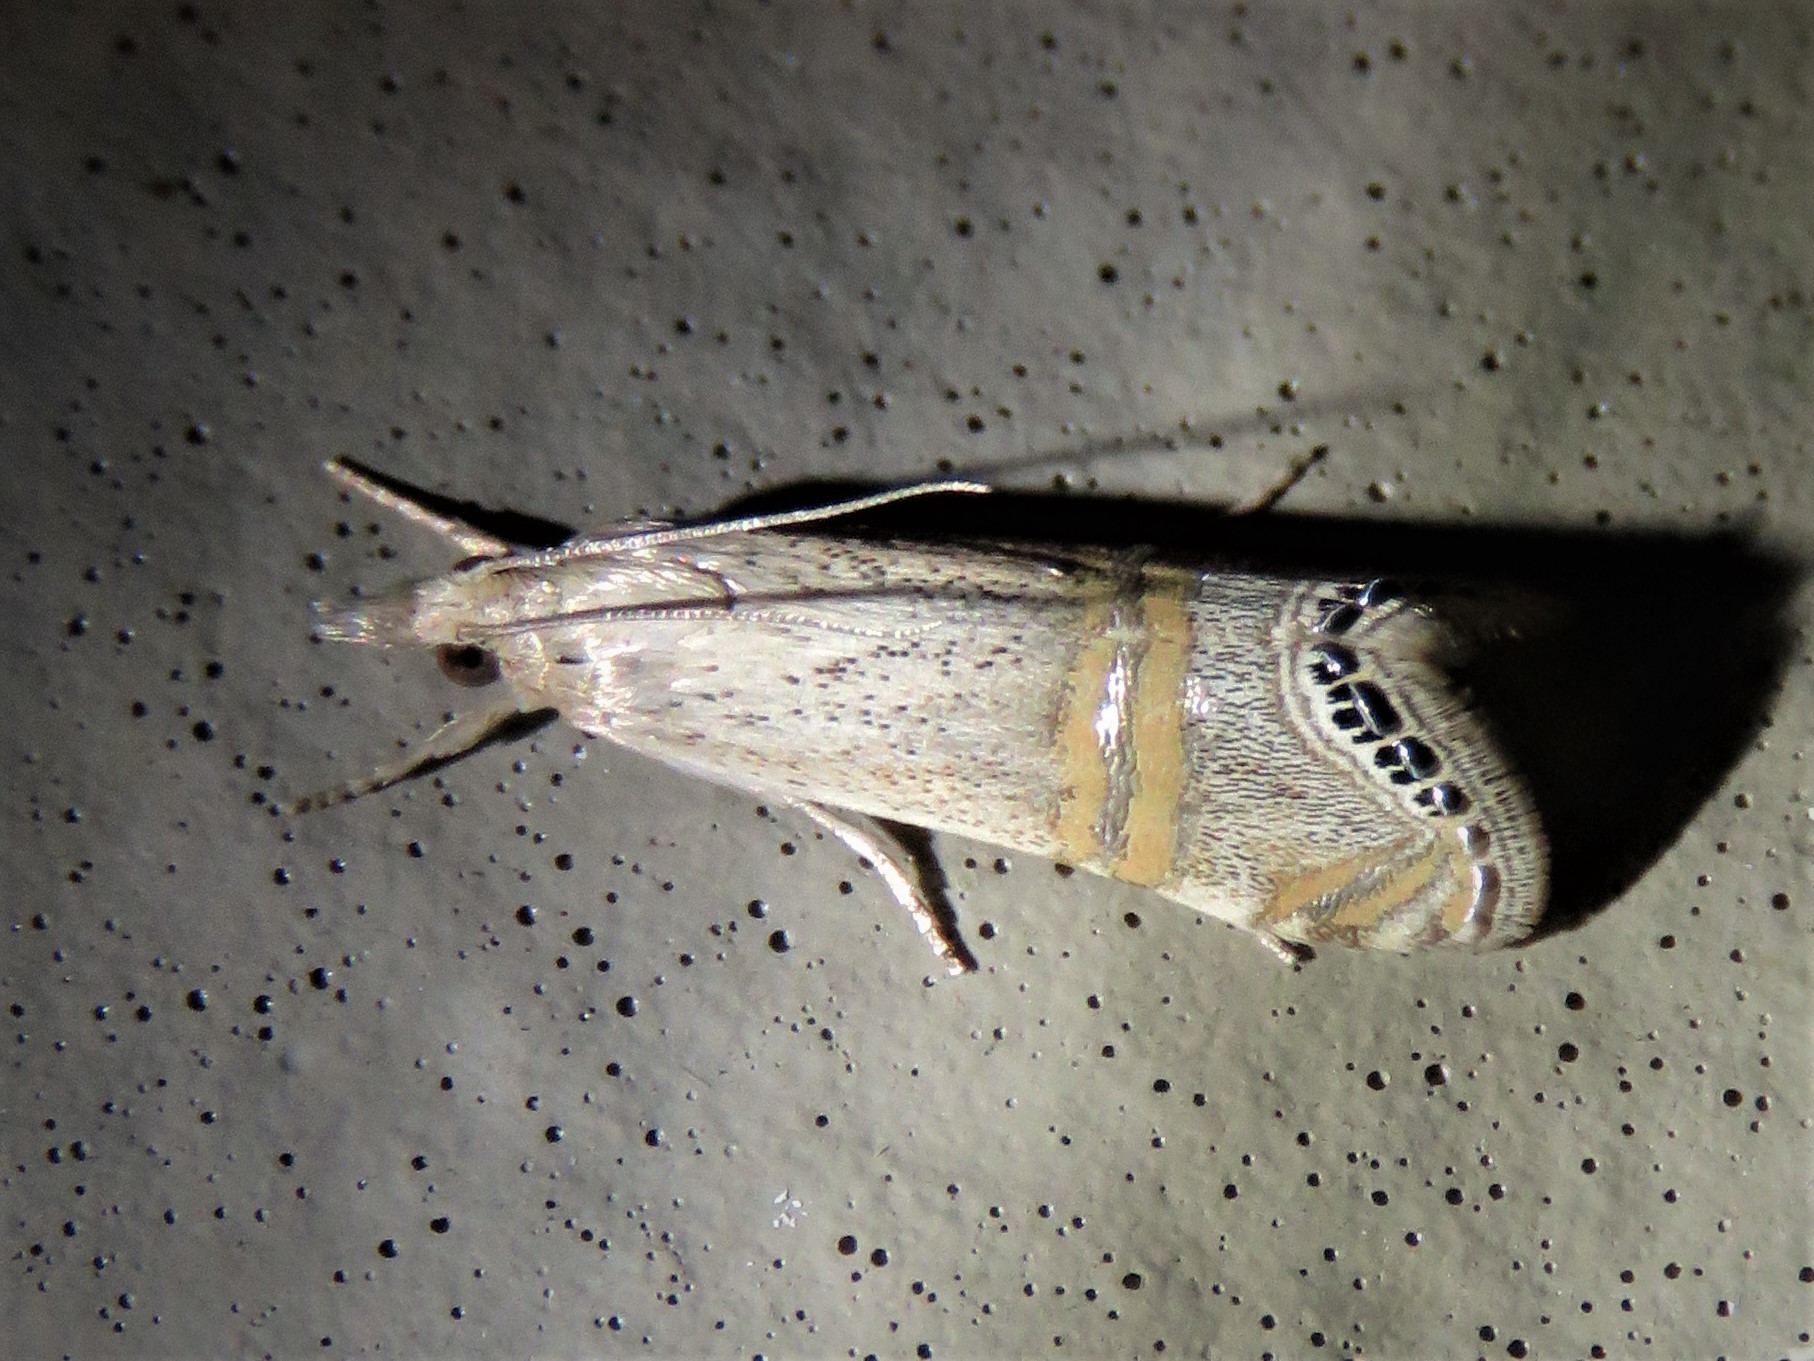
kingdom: Animalia
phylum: Arthropoda
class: Insecta
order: Lepidoptera
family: Crambidae
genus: Euchromius
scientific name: Euchromius ocellea
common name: Necklace veneer moth
